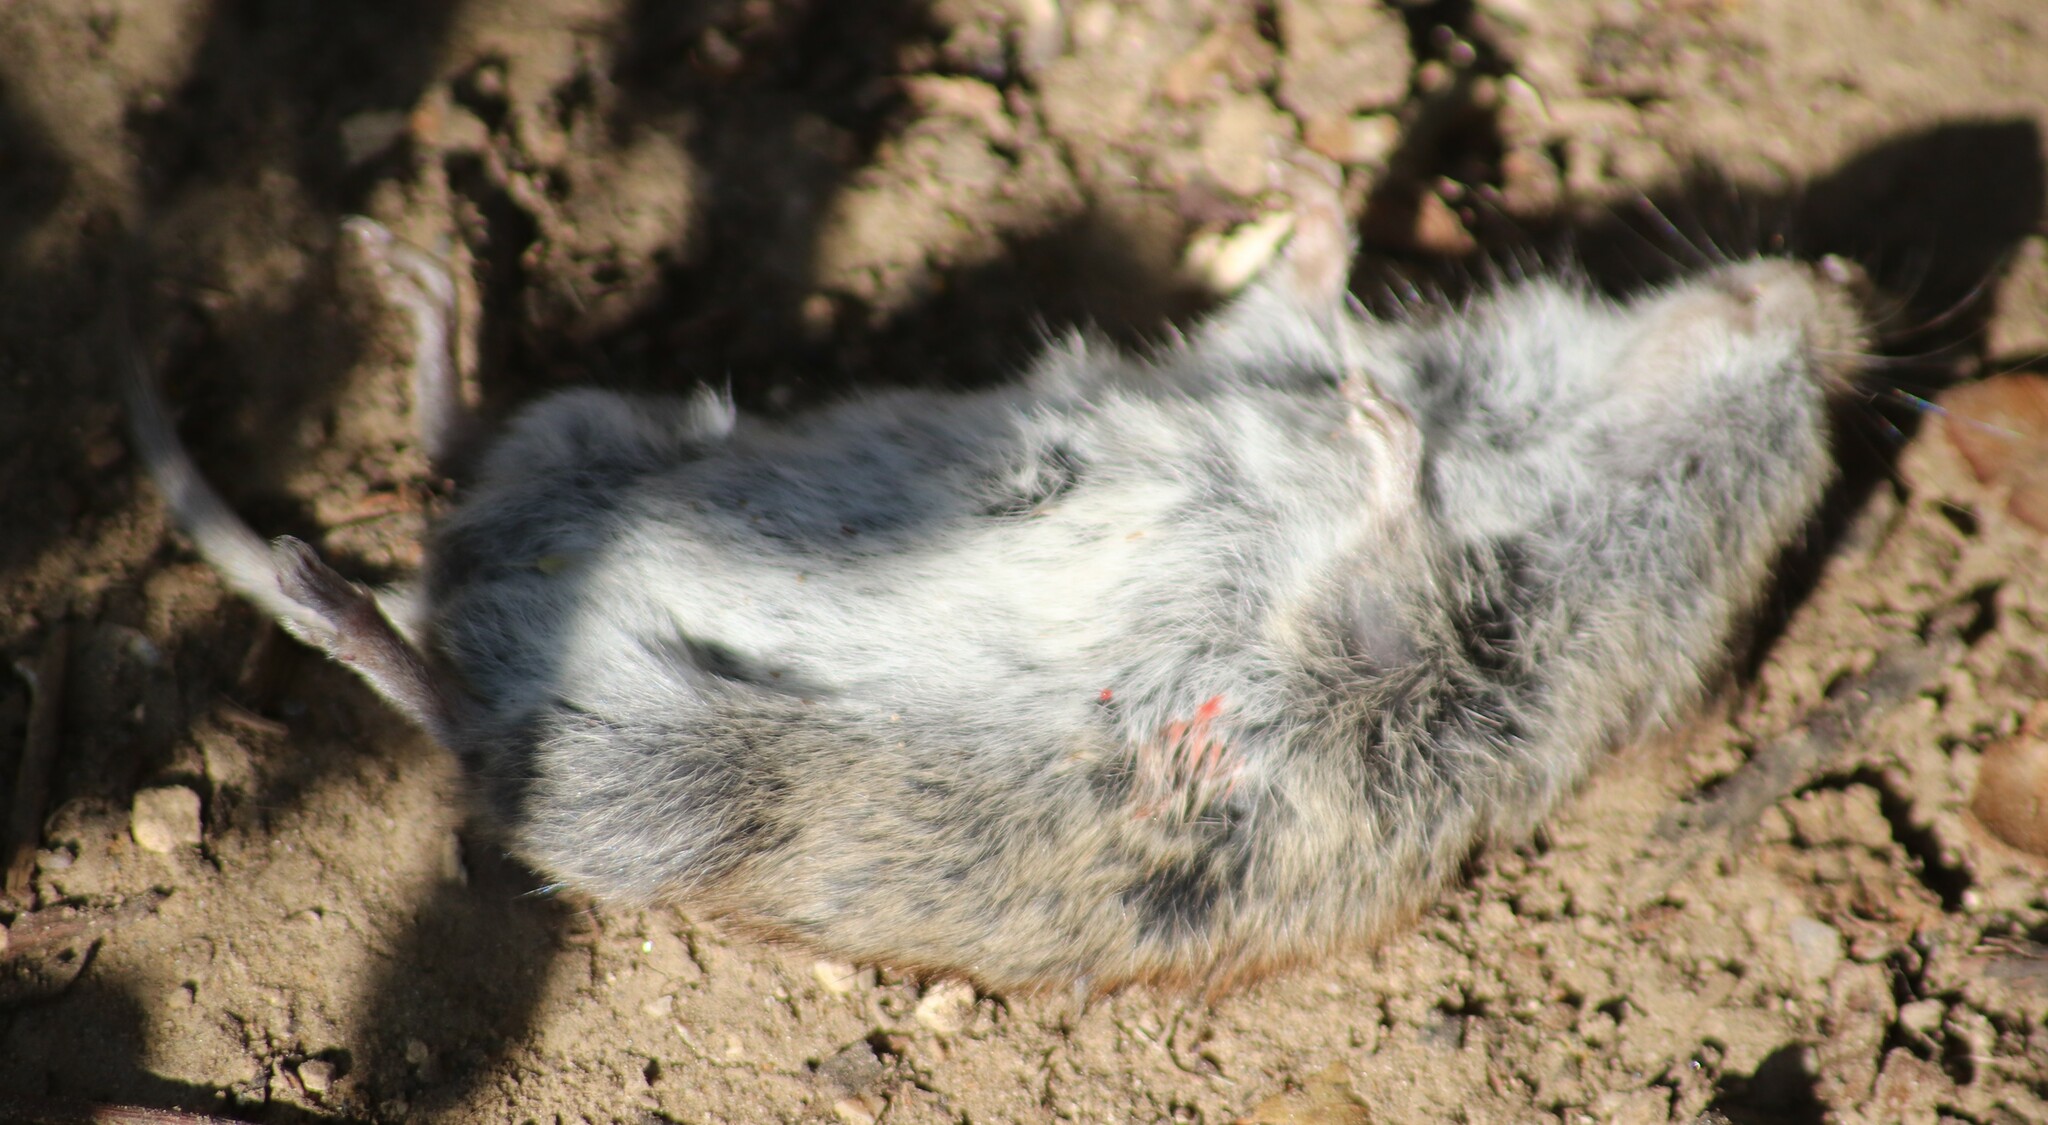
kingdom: Animalia
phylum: Chordata
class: Mammalia
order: Rodentia
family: Cricetidae
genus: Myodes
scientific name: Myodes gapperi
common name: Southern red-backed vole
